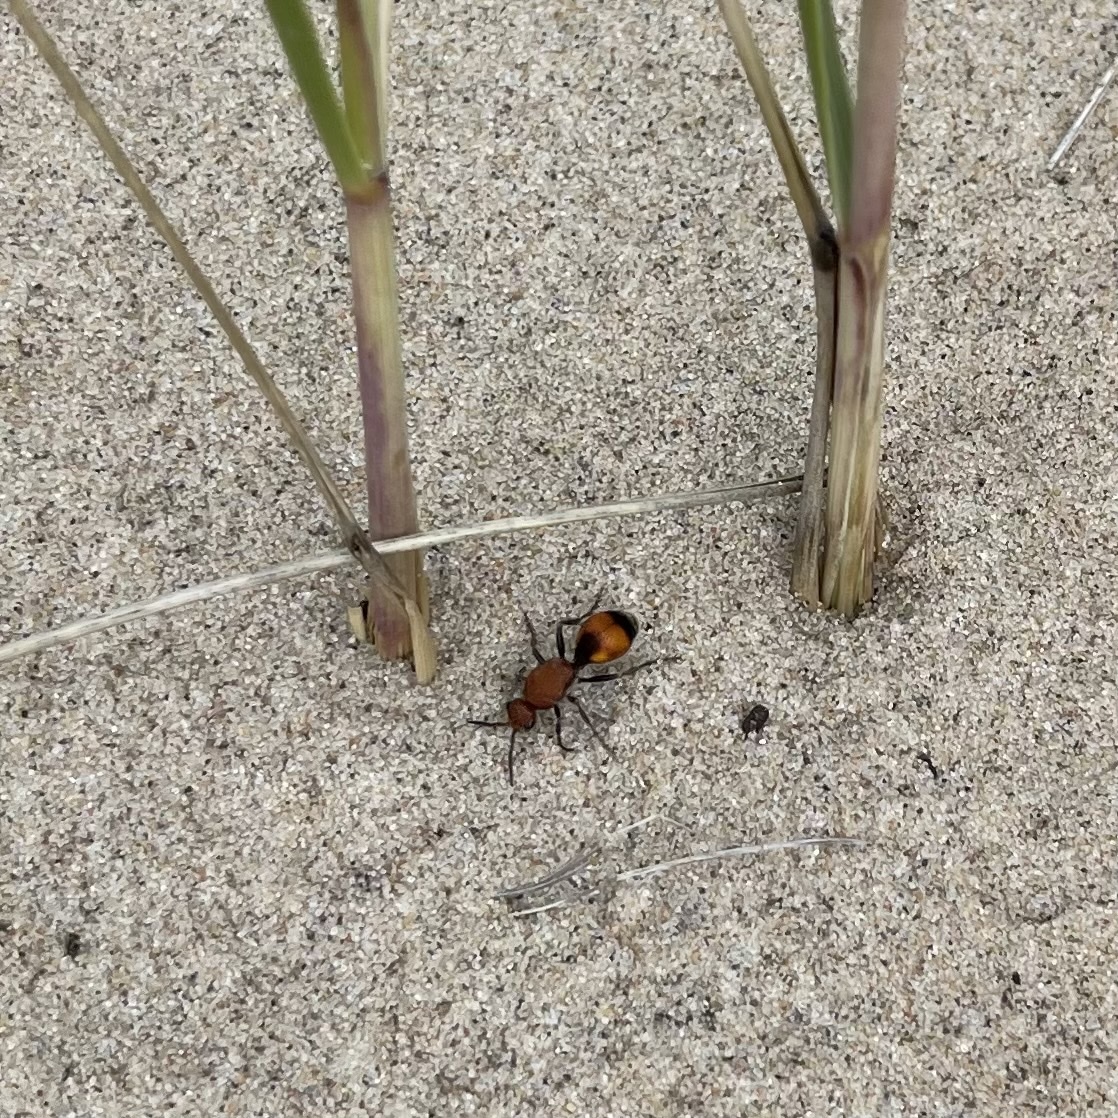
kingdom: Animalia
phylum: Arthropoda
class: Insecta
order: Hymenoptera
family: Mutillidae
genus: Dasymutilla
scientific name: Dasymutilla
